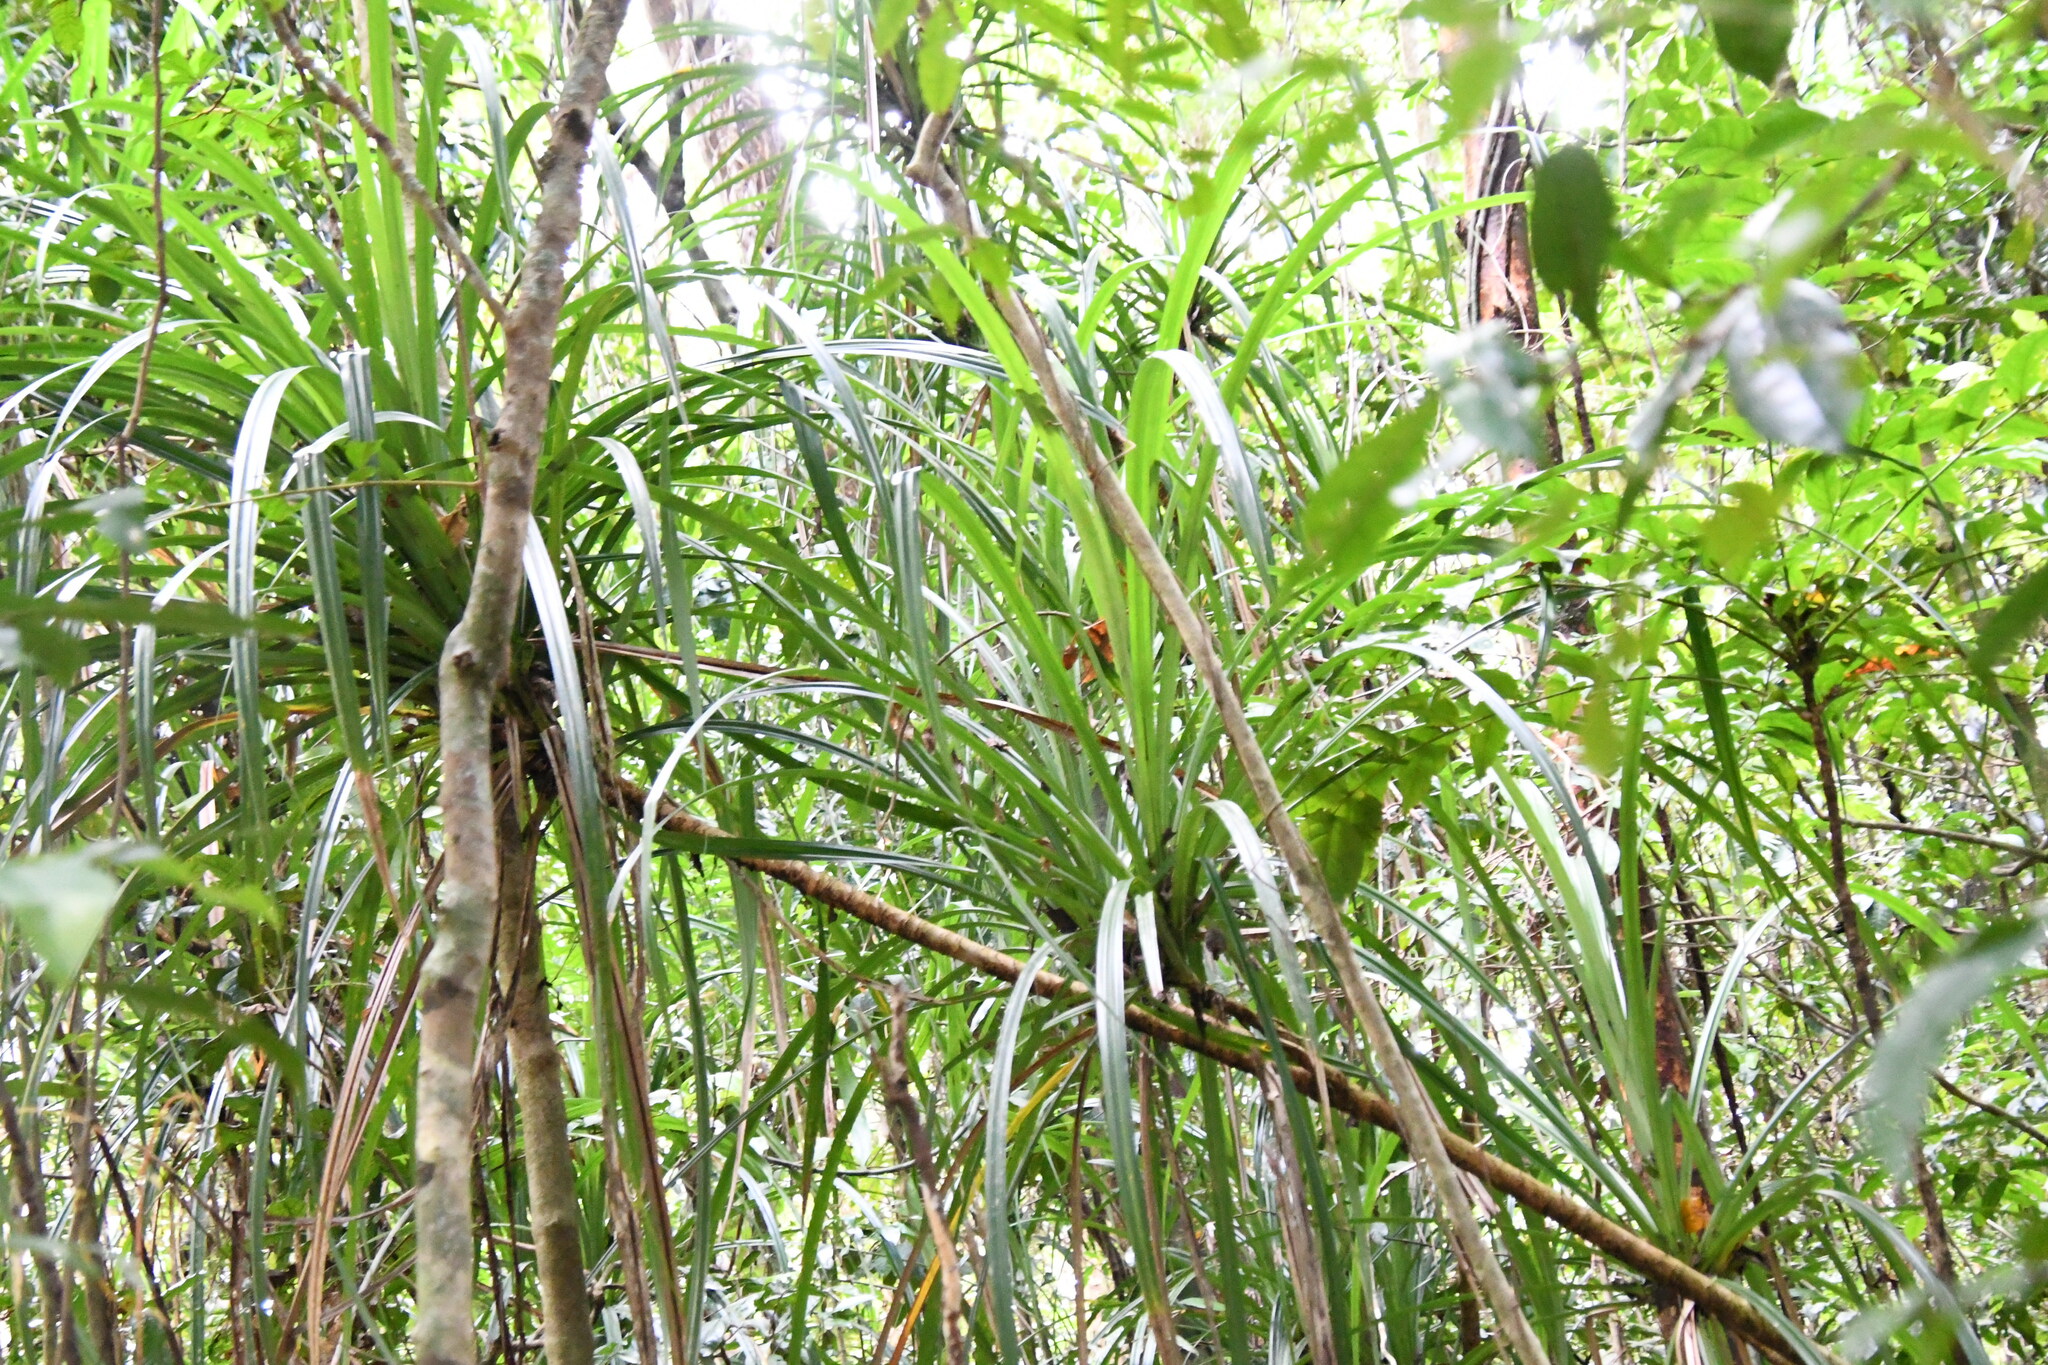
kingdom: Plantae
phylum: Tracheophyta
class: Liliopsida
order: Pandanales
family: Pandanaceae
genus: Benstonea
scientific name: Benstonea monticola
